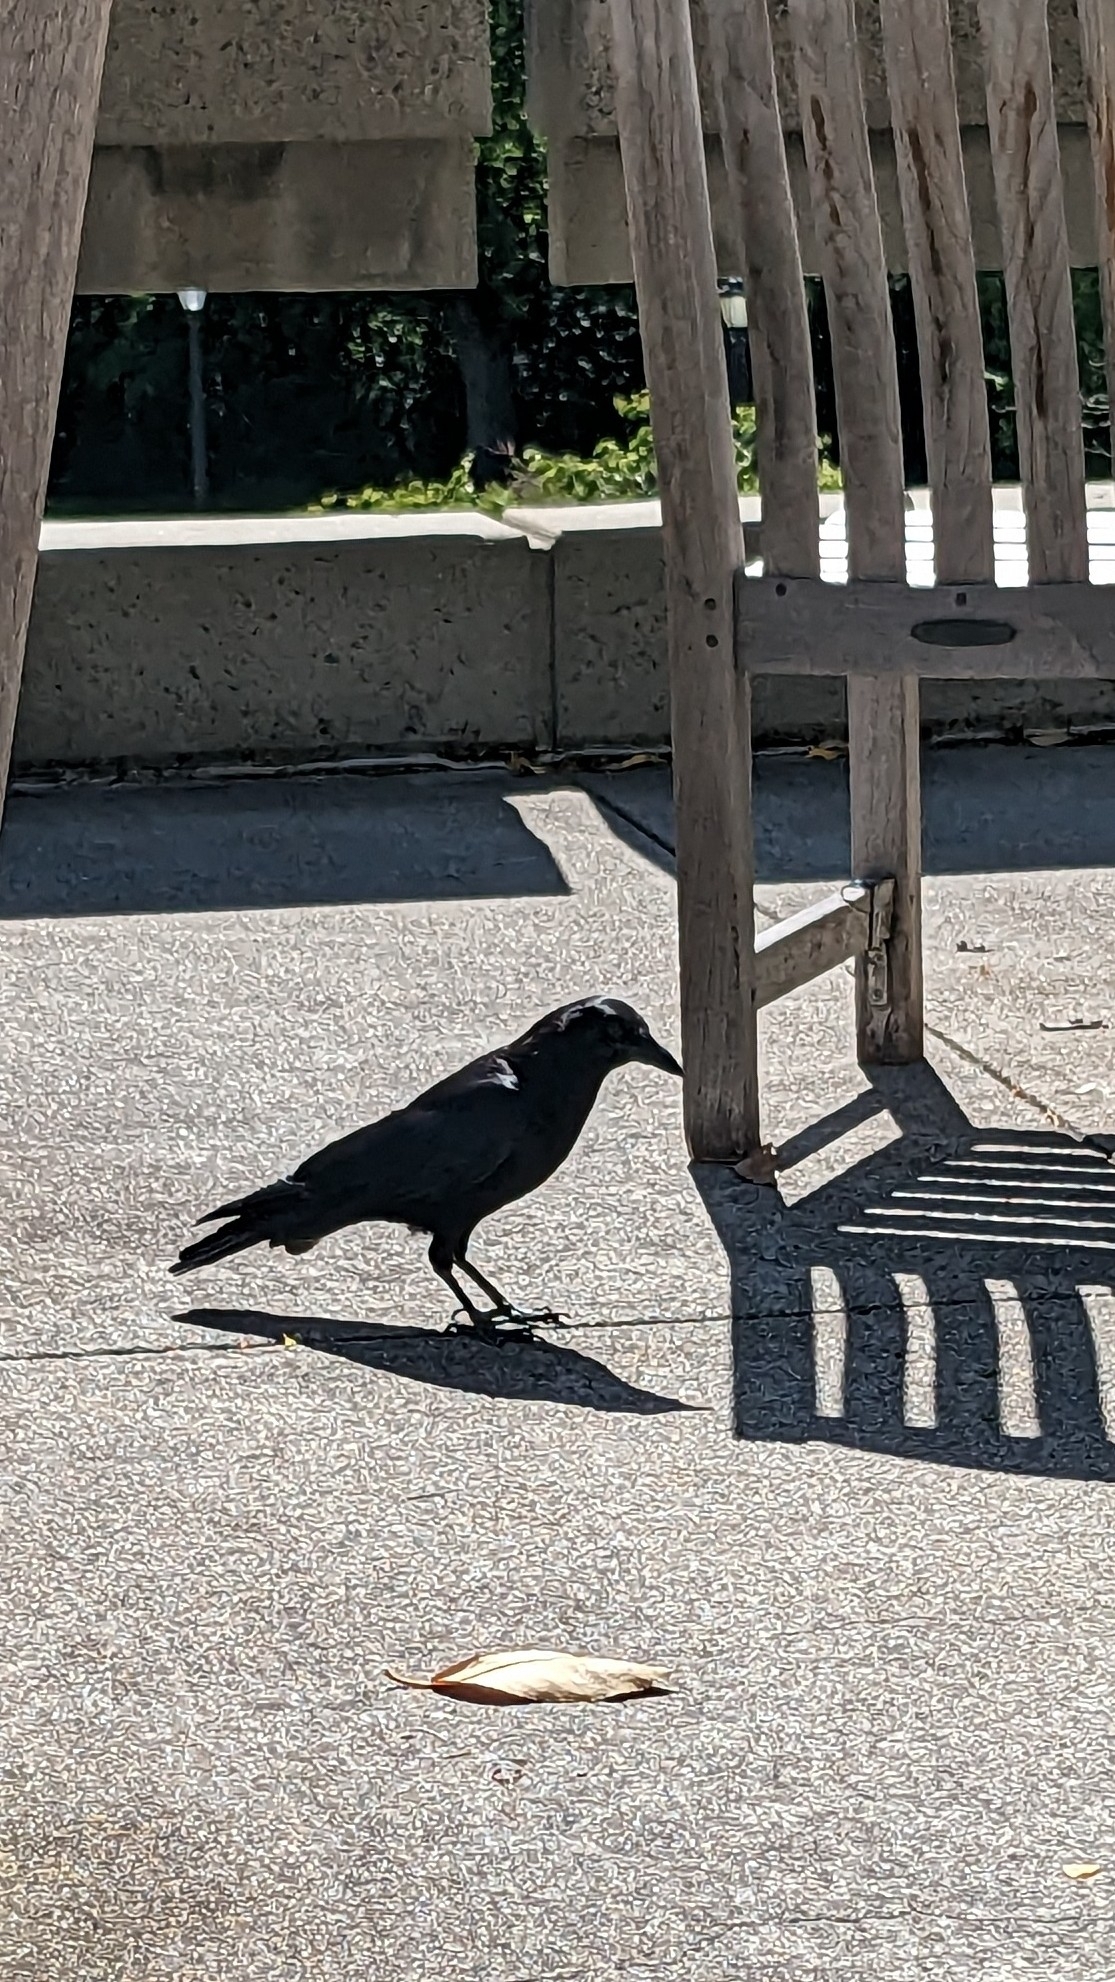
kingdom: Animalia
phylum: Chordata
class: Aves
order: Passeriformes
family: Corvidae
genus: Corvus
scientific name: Corvus brachyrhynchos
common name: American crow
